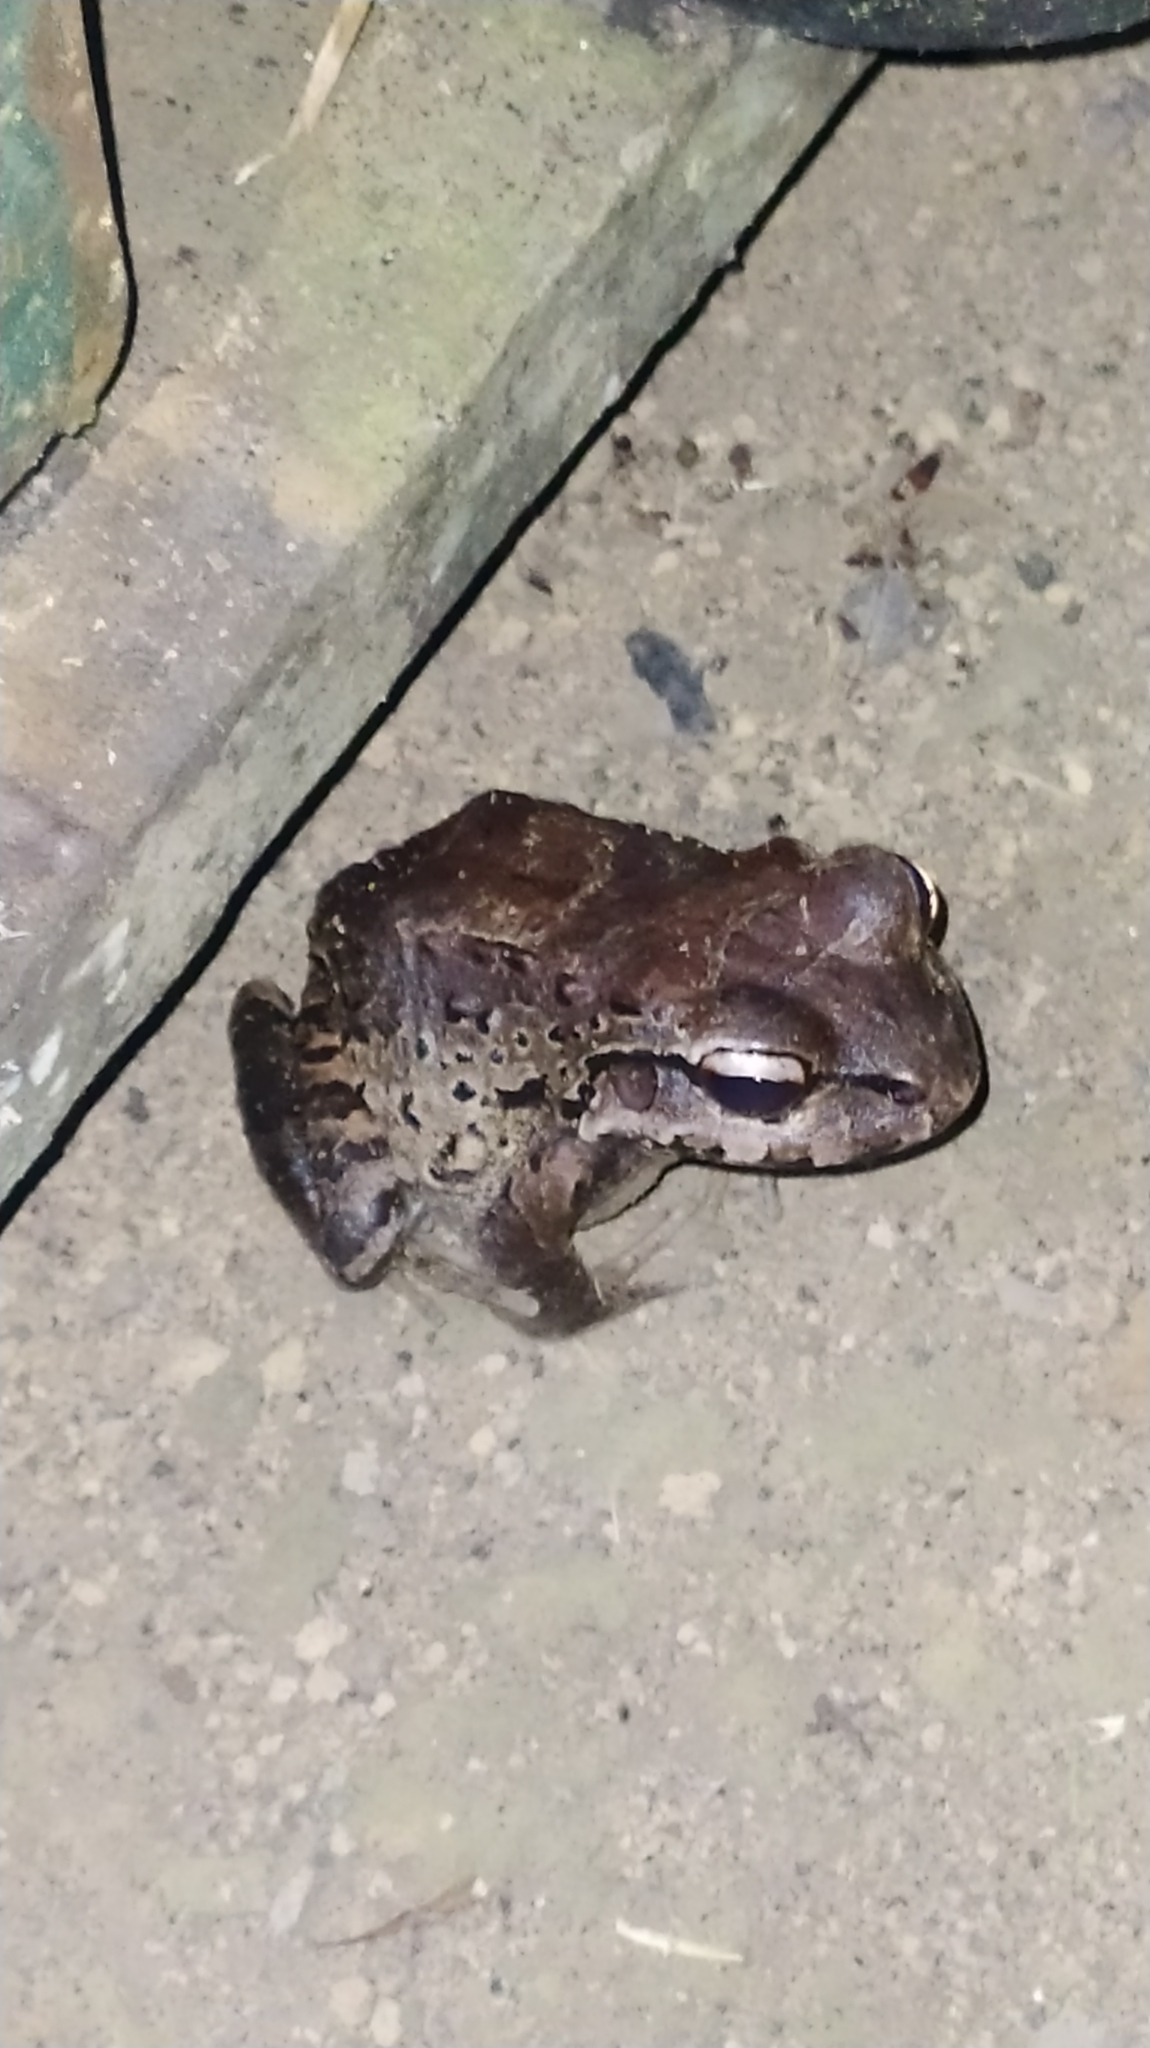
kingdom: Animalia
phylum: Chordata
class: Amphibia
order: Anura
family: Leptodactylidae
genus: Leptodactylus
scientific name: Leptodactylus myersi
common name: Myers' thin-toed frog
